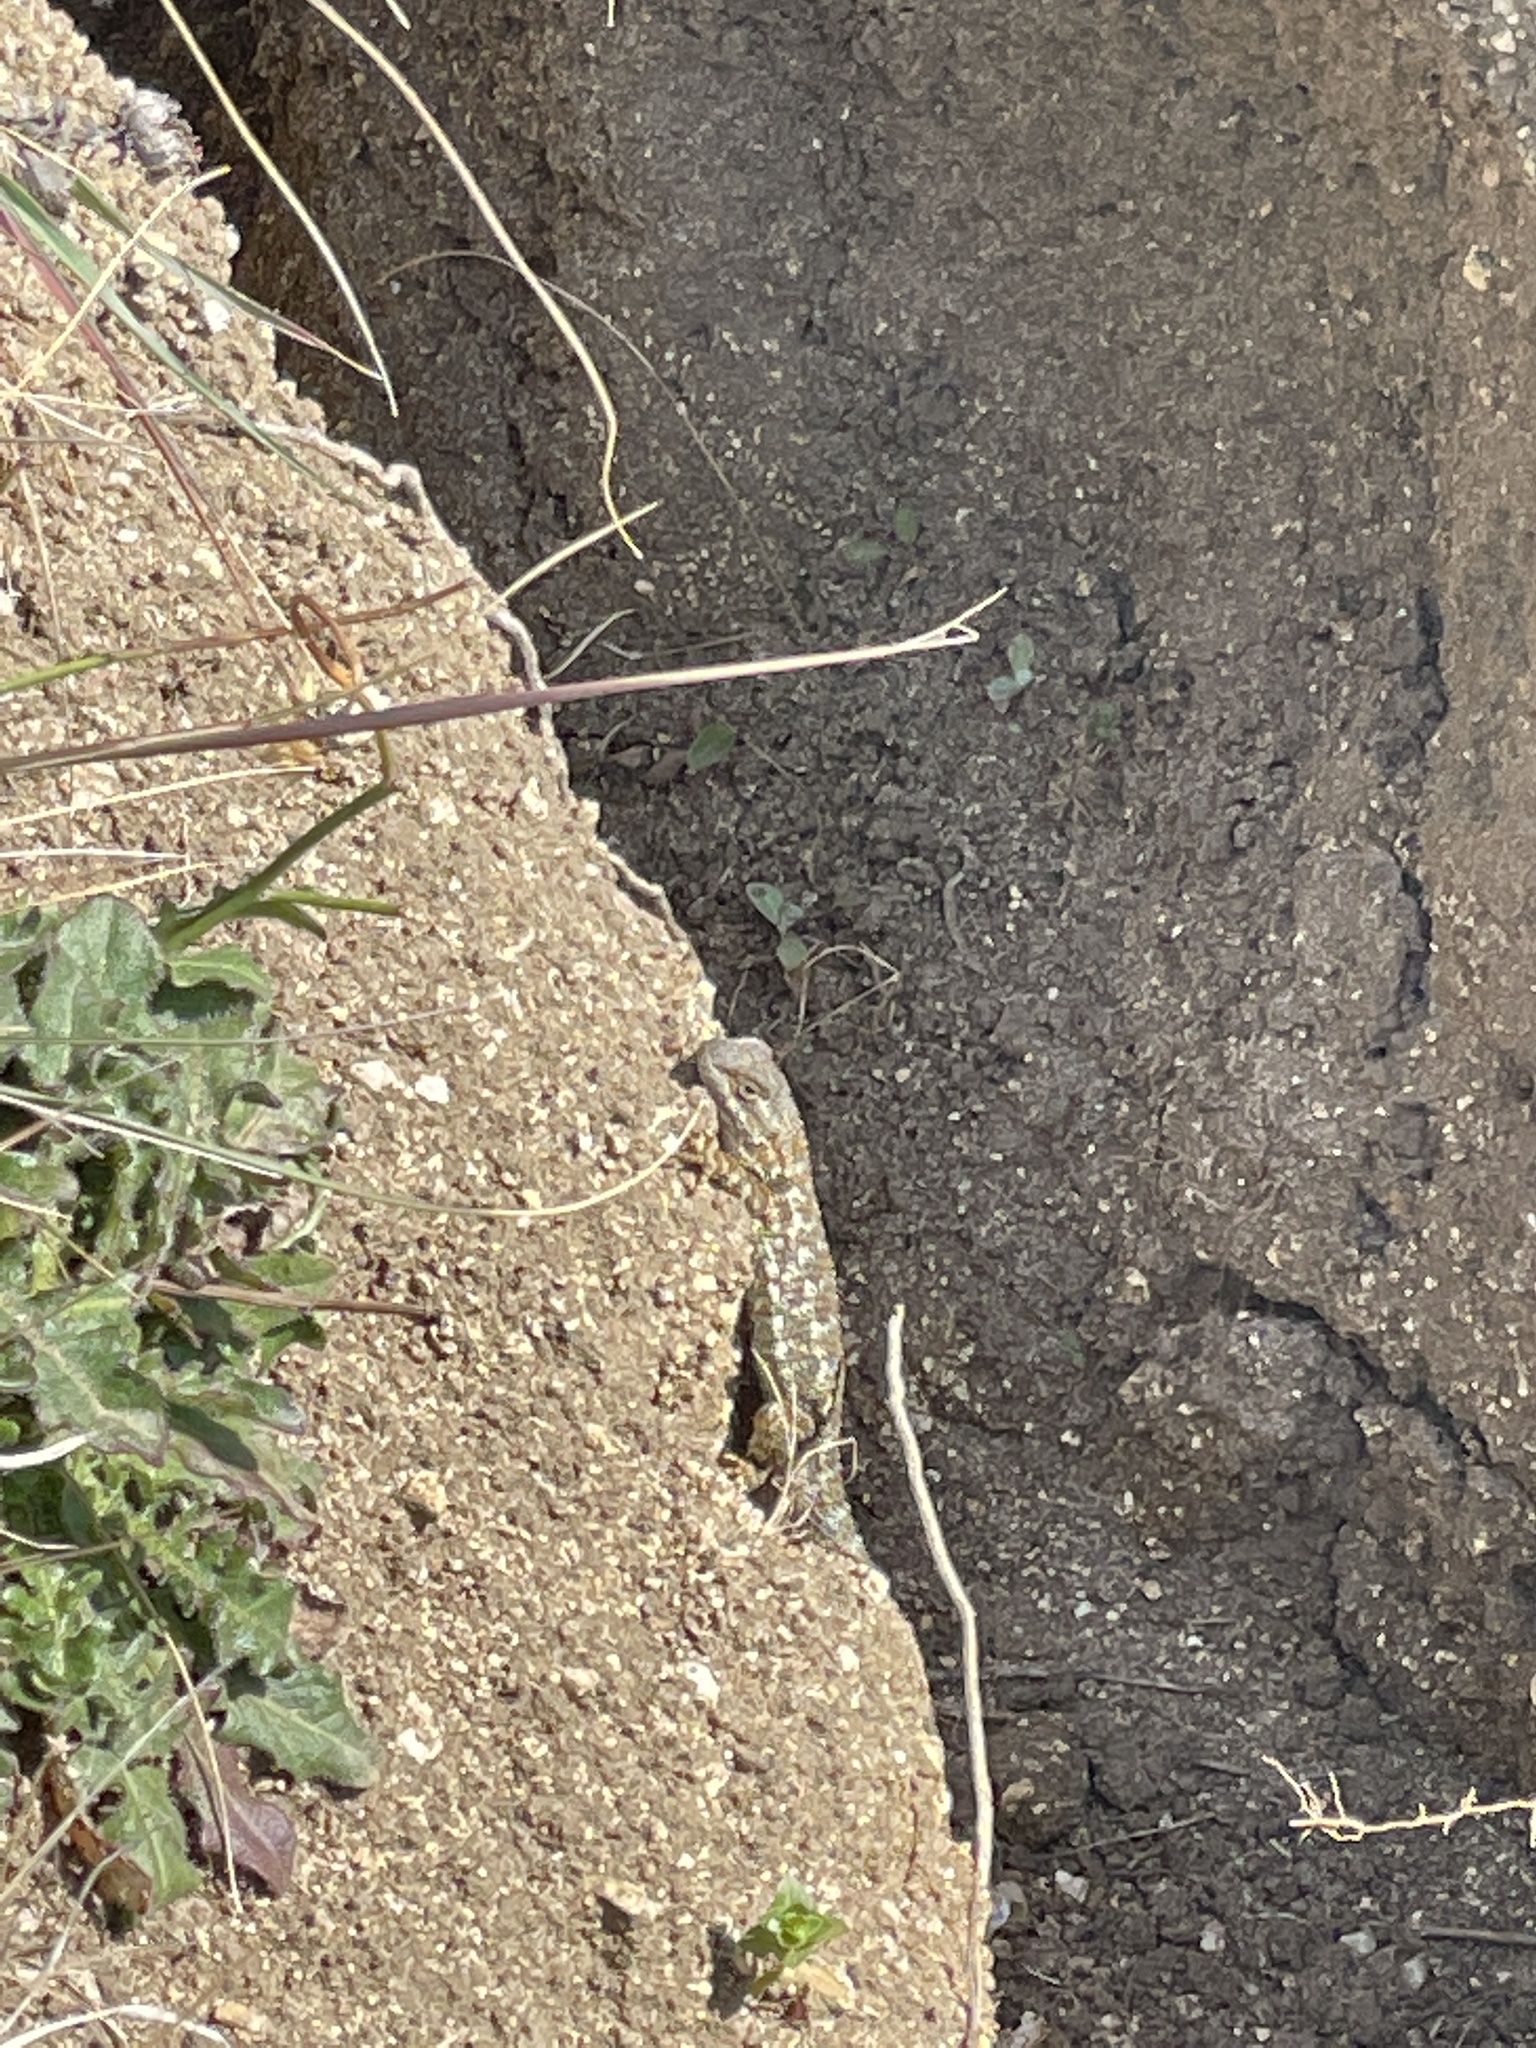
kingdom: Animalia
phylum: Chordata
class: Squamata
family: Phrynosomatidae
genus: Sceloporus
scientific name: Sceloporus occidentalis
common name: Western fence lizard
